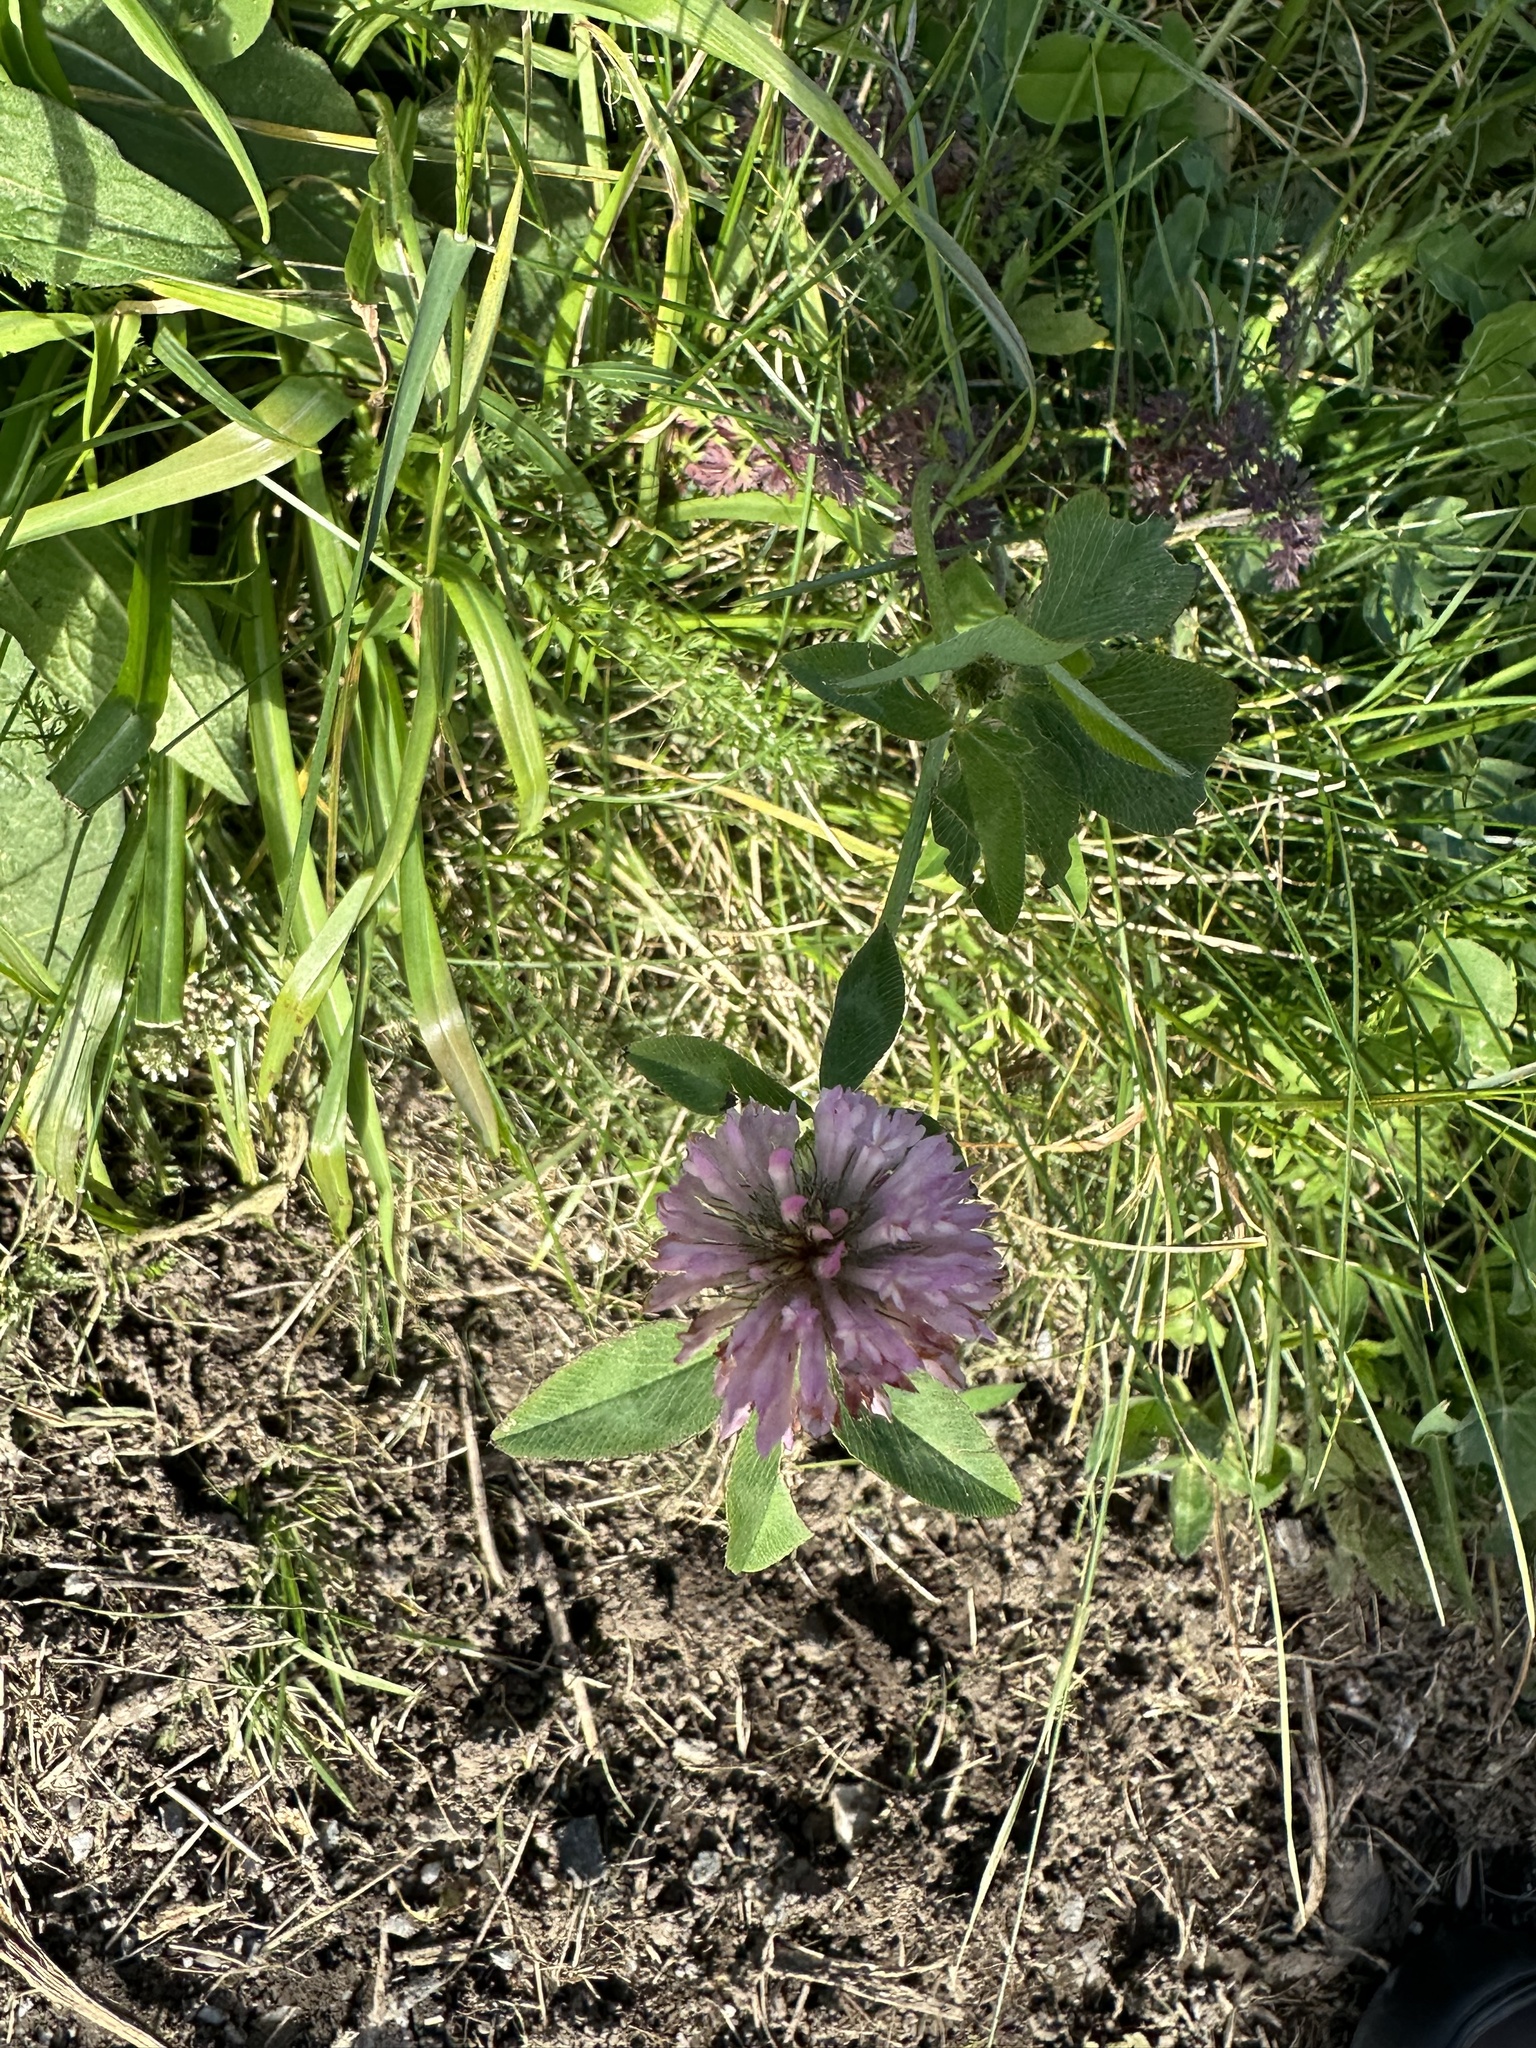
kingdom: Plantae
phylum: Tracheophyta
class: Magnoliopsida
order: Fabales
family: Fabaceae
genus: Trifolium
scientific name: Trifolium pratense
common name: Red clover
